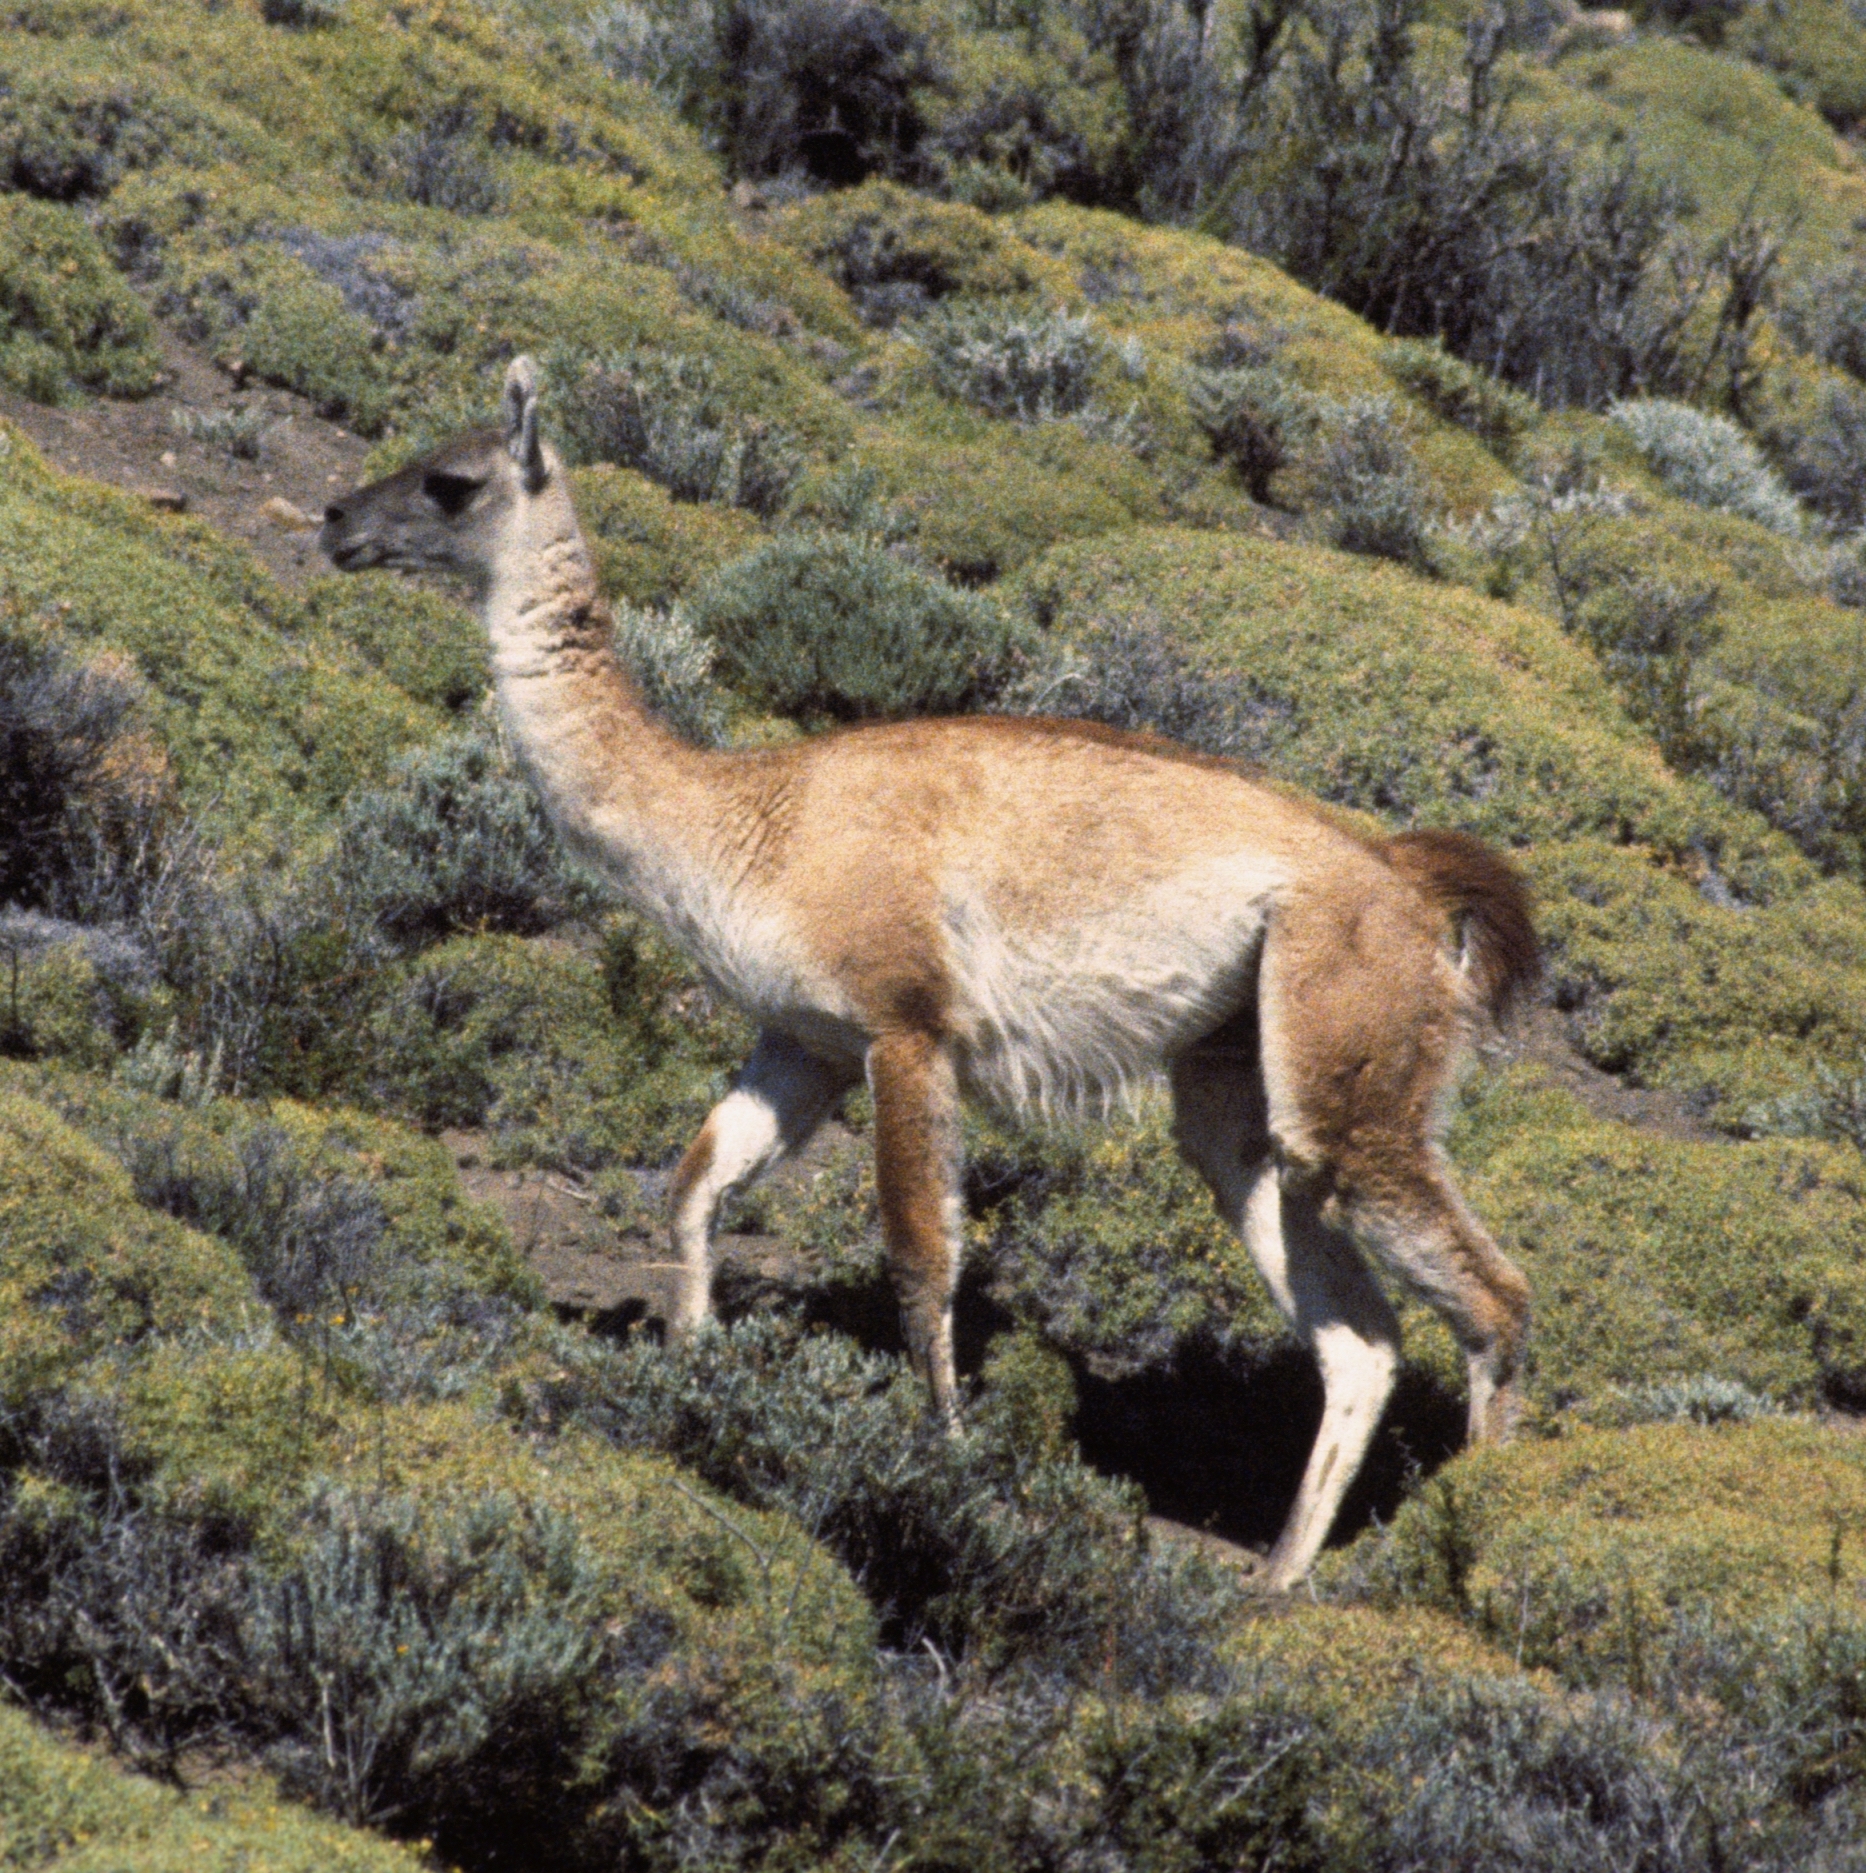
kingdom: Animalia
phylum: Chordata
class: Mammalia
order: Artiodactyla
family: Camelidae
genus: Lama
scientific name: Lama glama
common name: Llama
